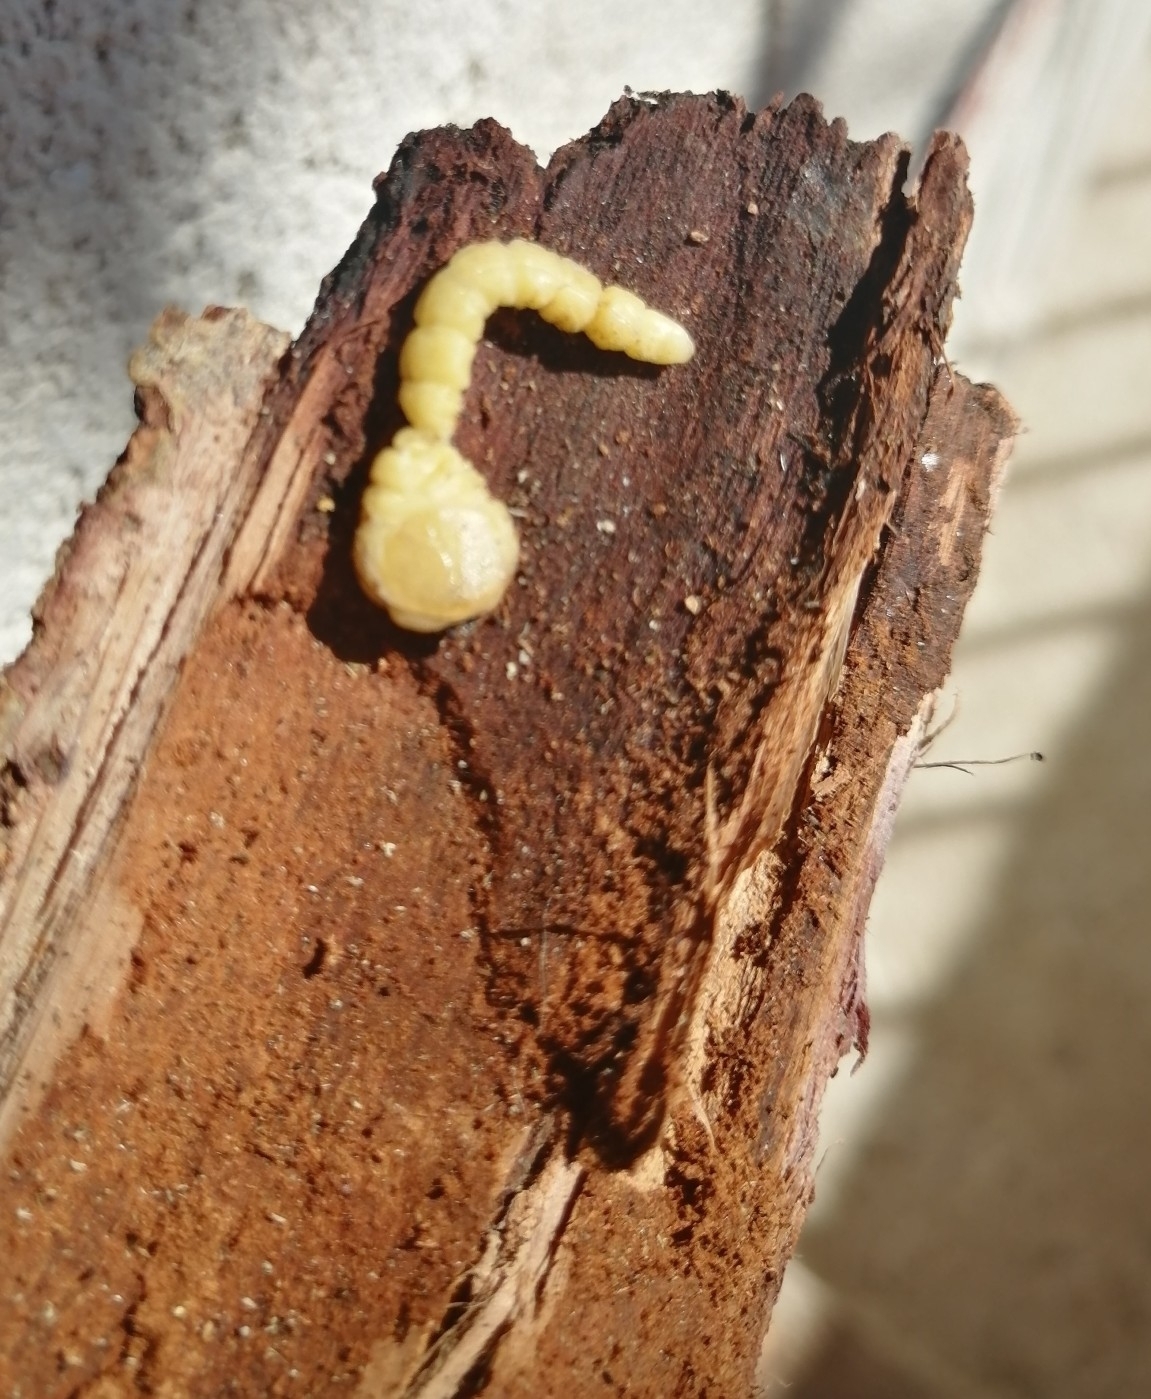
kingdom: Animalia
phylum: Arthropoda
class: Insecta
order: Coleoptera
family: Buprestidae
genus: Euchroma
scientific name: Euchroma giganteum
